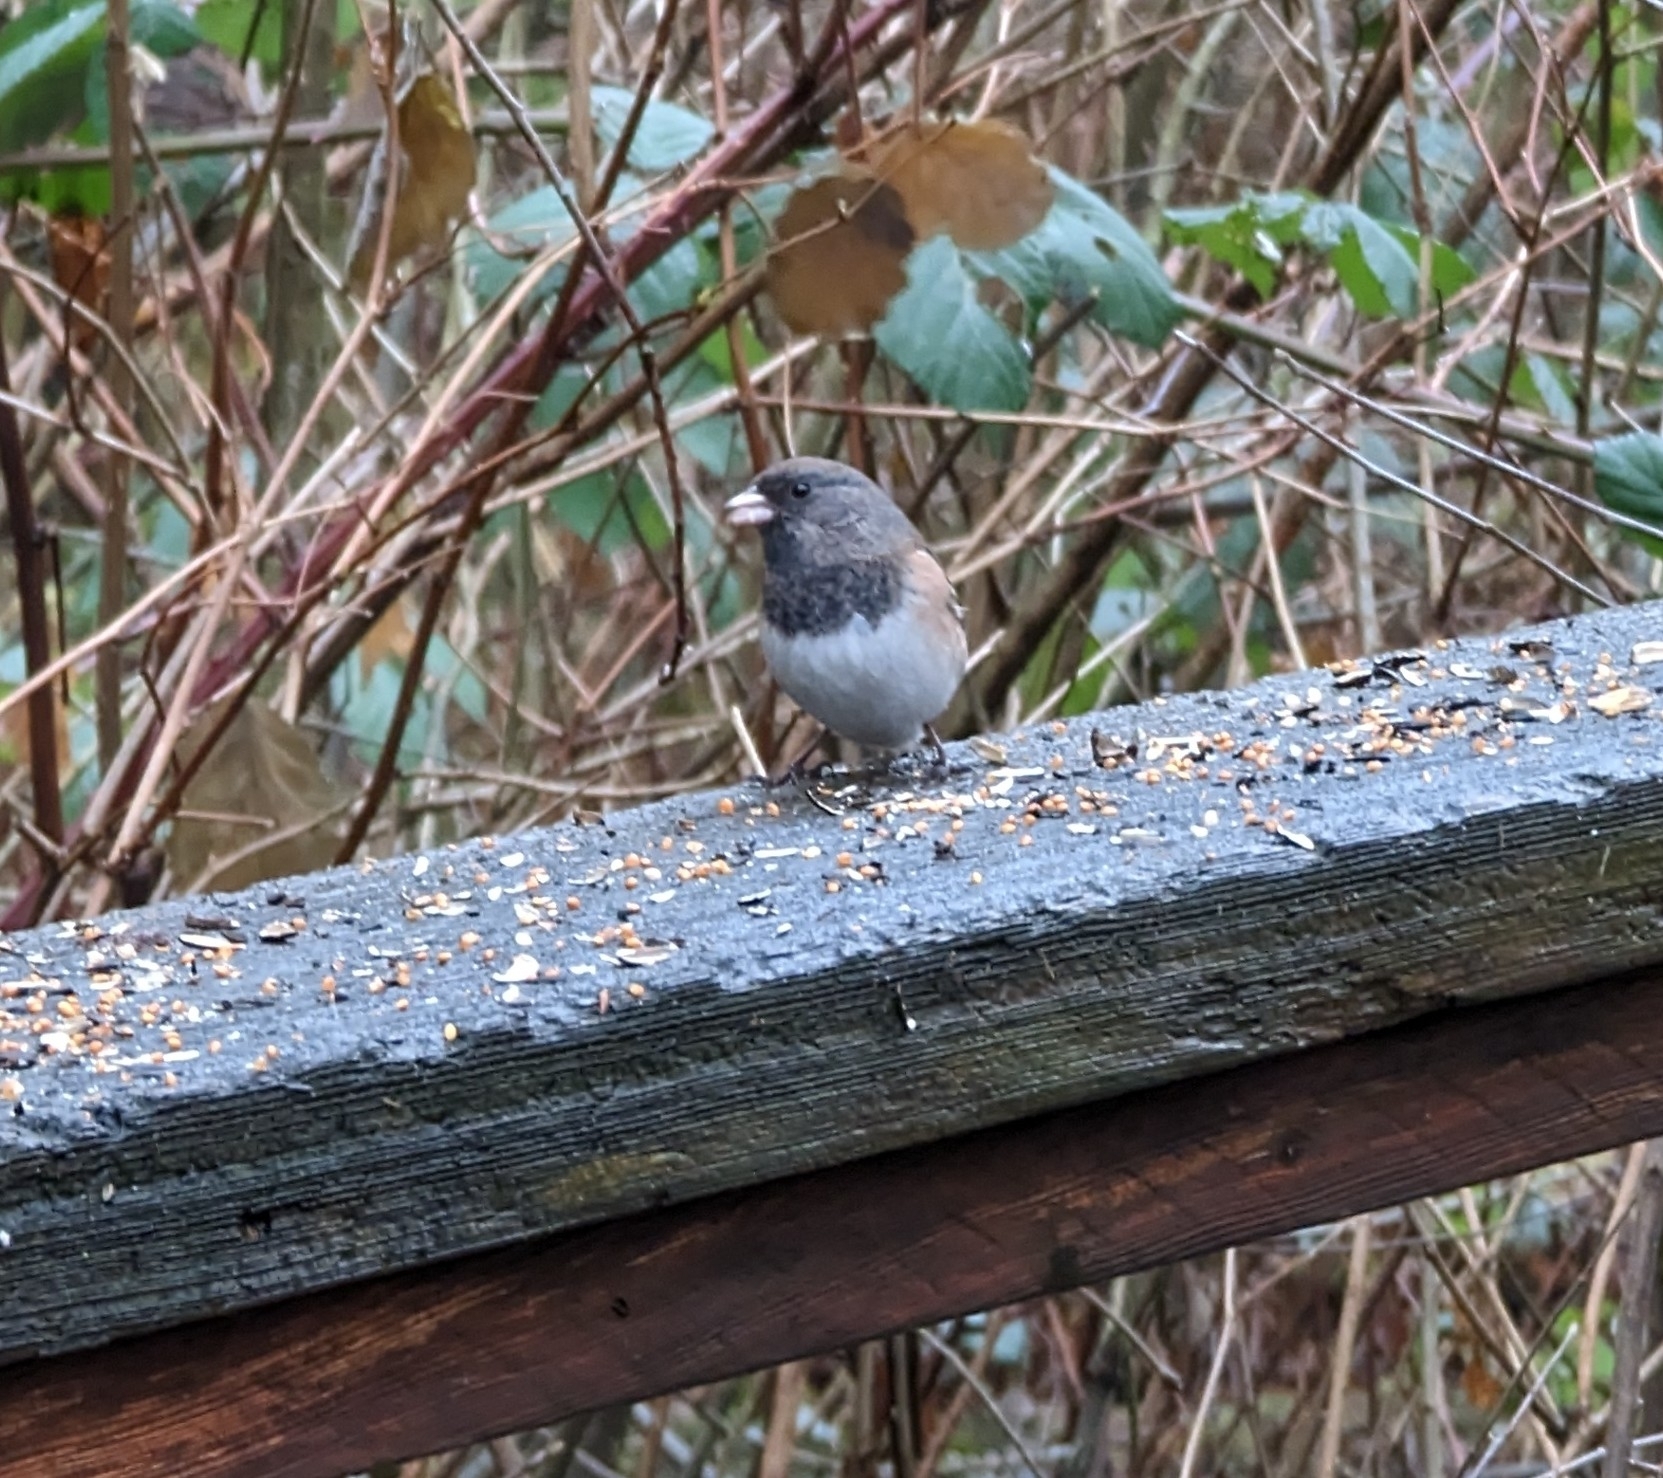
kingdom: Animalia
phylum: Chordata
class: Aves
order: Passeriformes
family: Passerellidae
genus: Junco
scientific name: Junco hyemalis
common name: Dark-eyed junco
